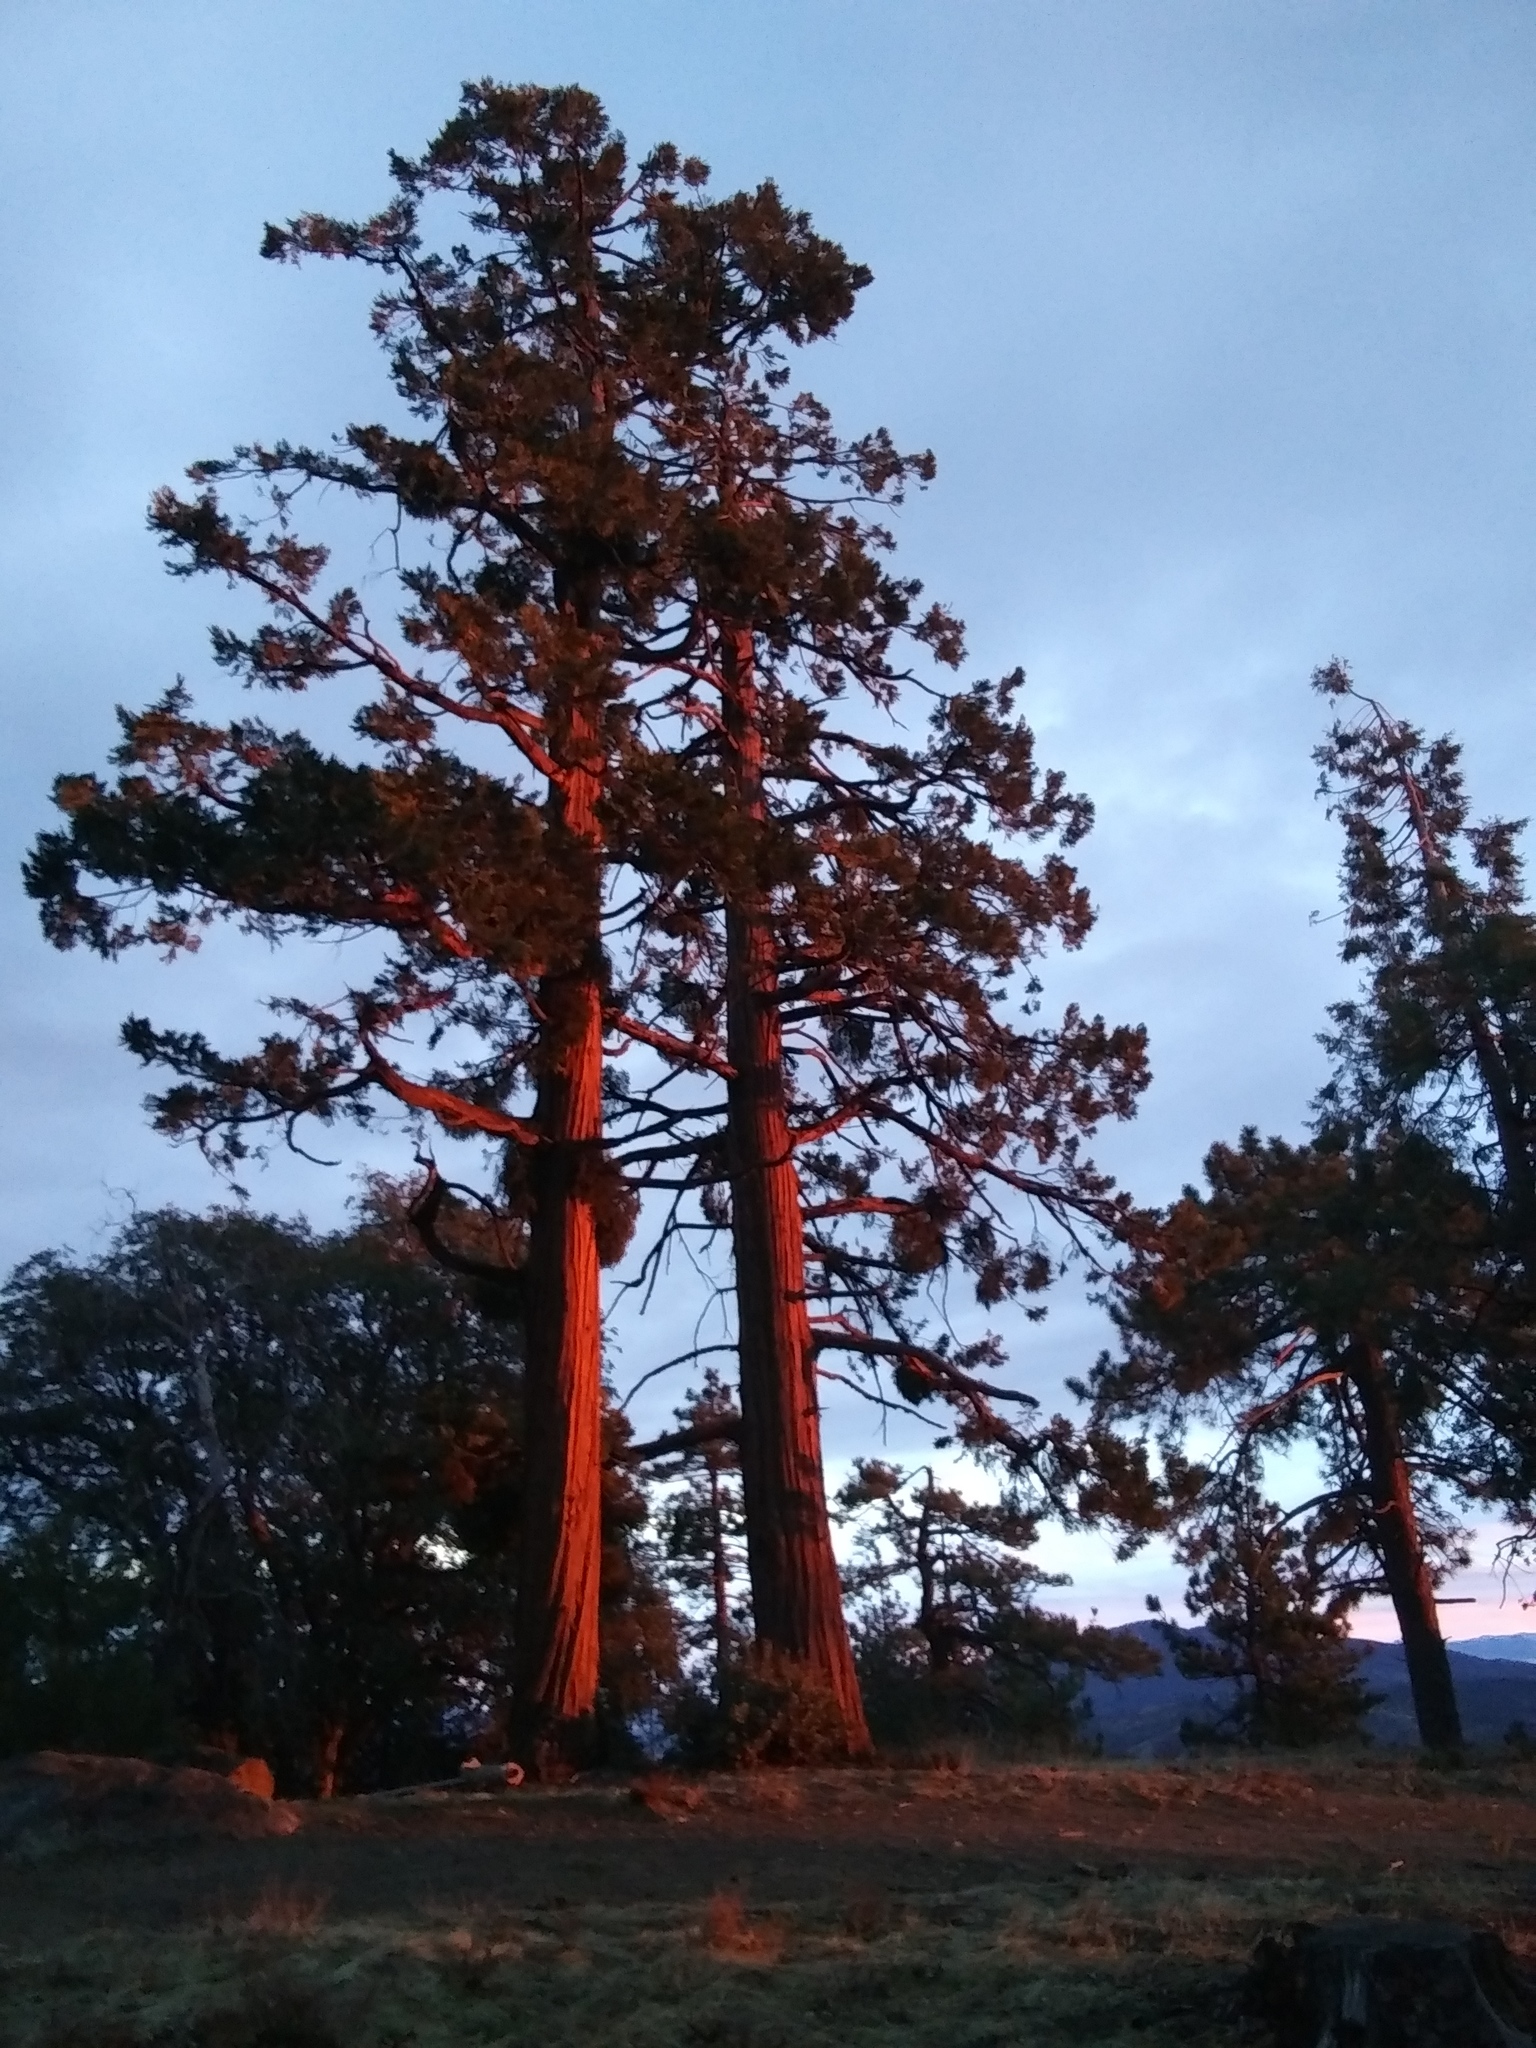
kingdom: Plantae
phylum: Tracheophyta
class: Pinopsida
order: Pinales
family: Cupressaceae
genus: Calocedrus
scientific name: Calocedrus decurrens
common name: Californian incense-cedar
